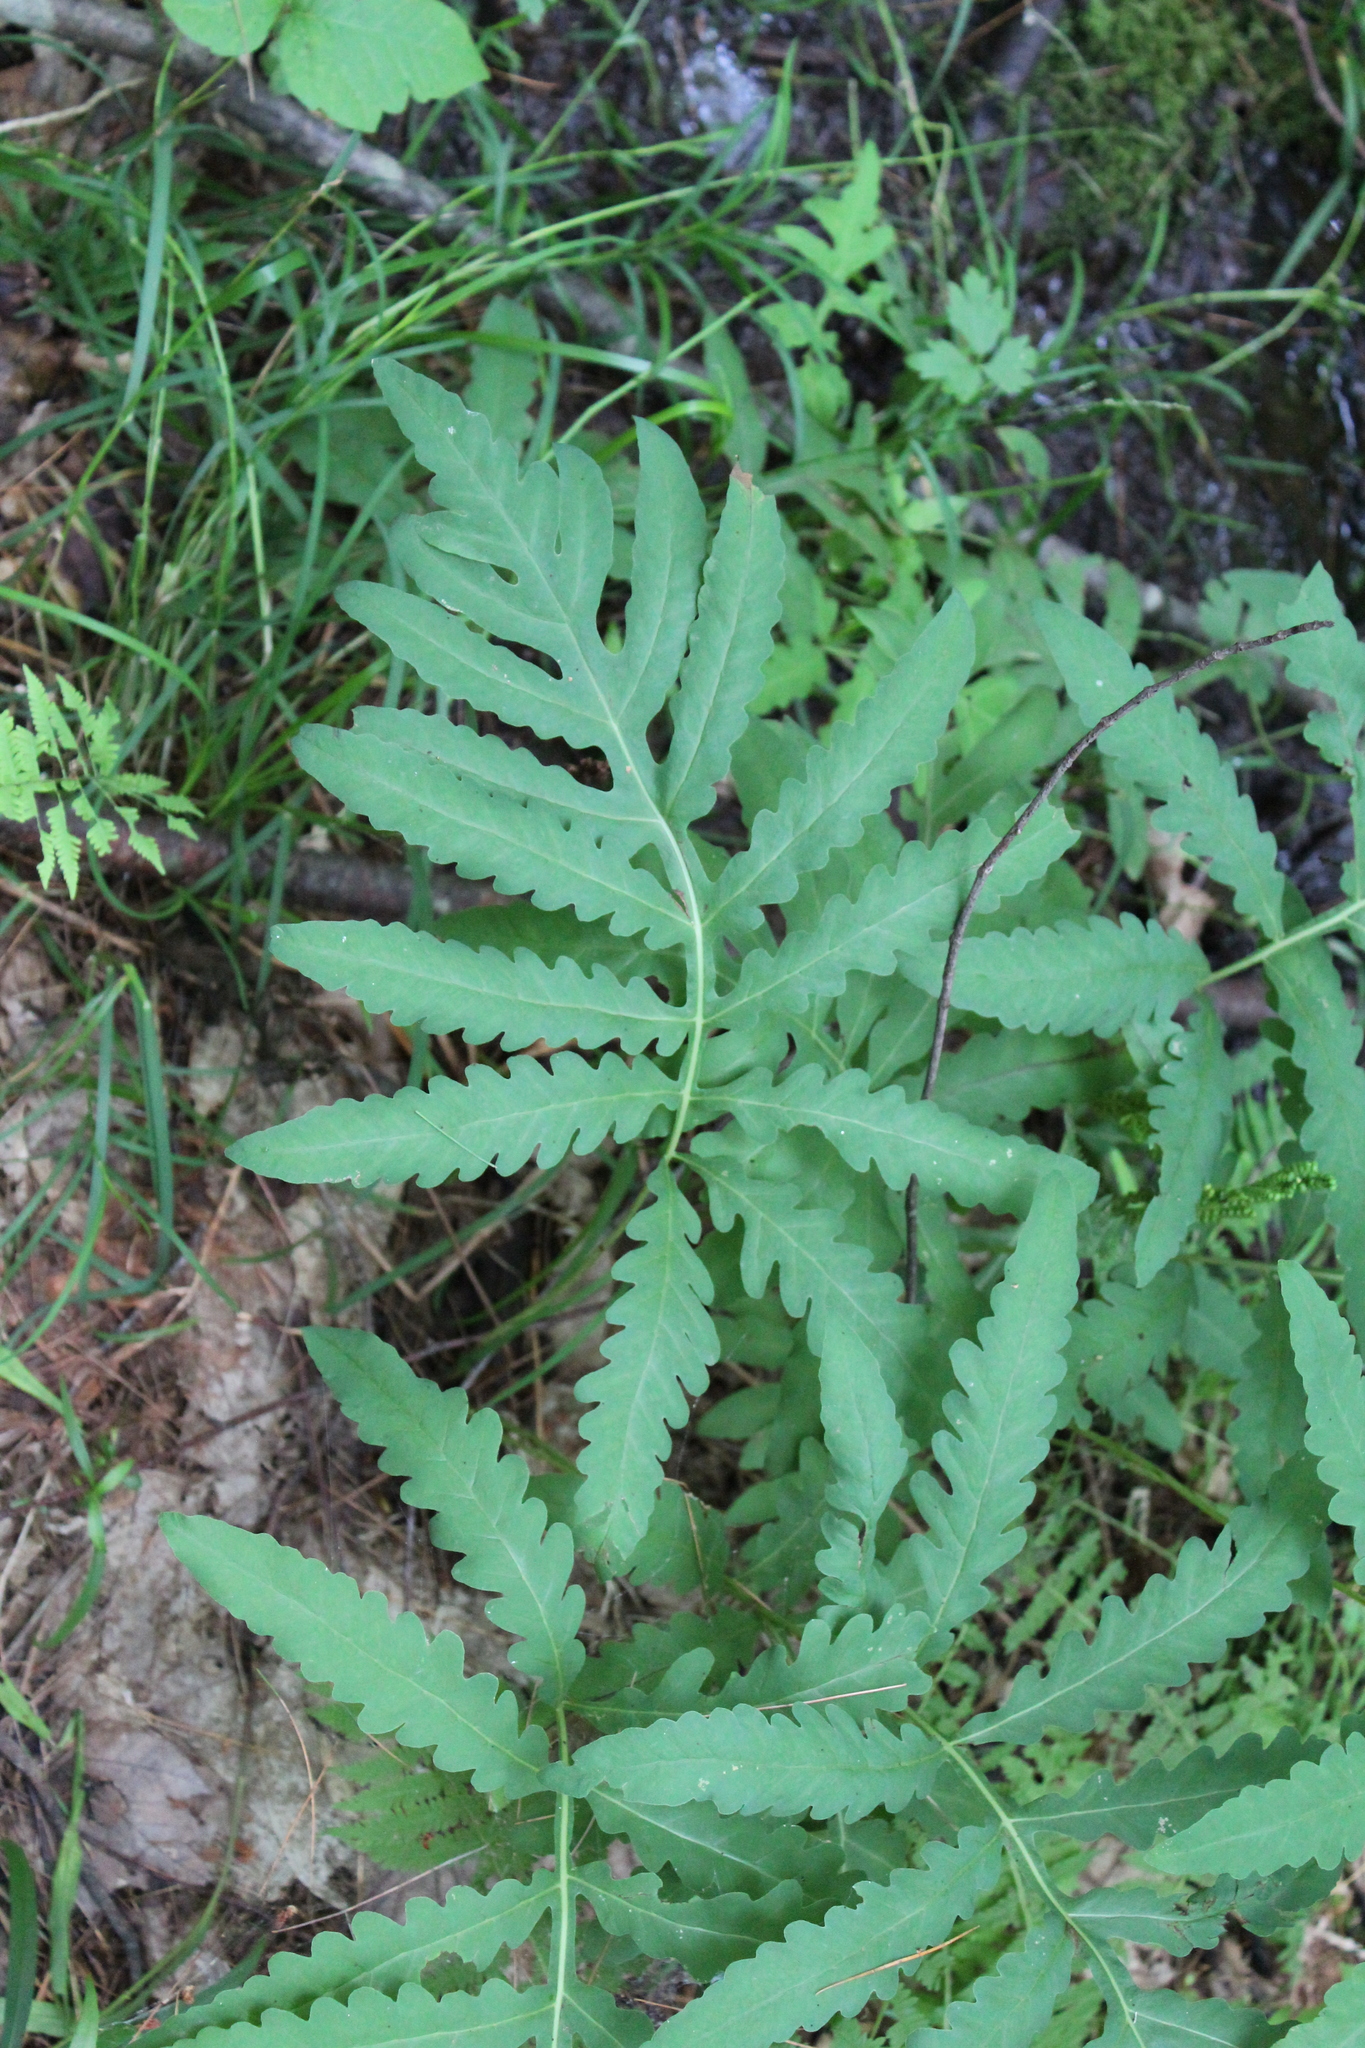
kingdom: Plantae
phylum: Tracheophyta
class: Polypodiopsida
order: Polypodiales
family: Onocleaceae
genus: Onoclea
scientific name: Onoclea sensibilis
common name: Sensitive fern
